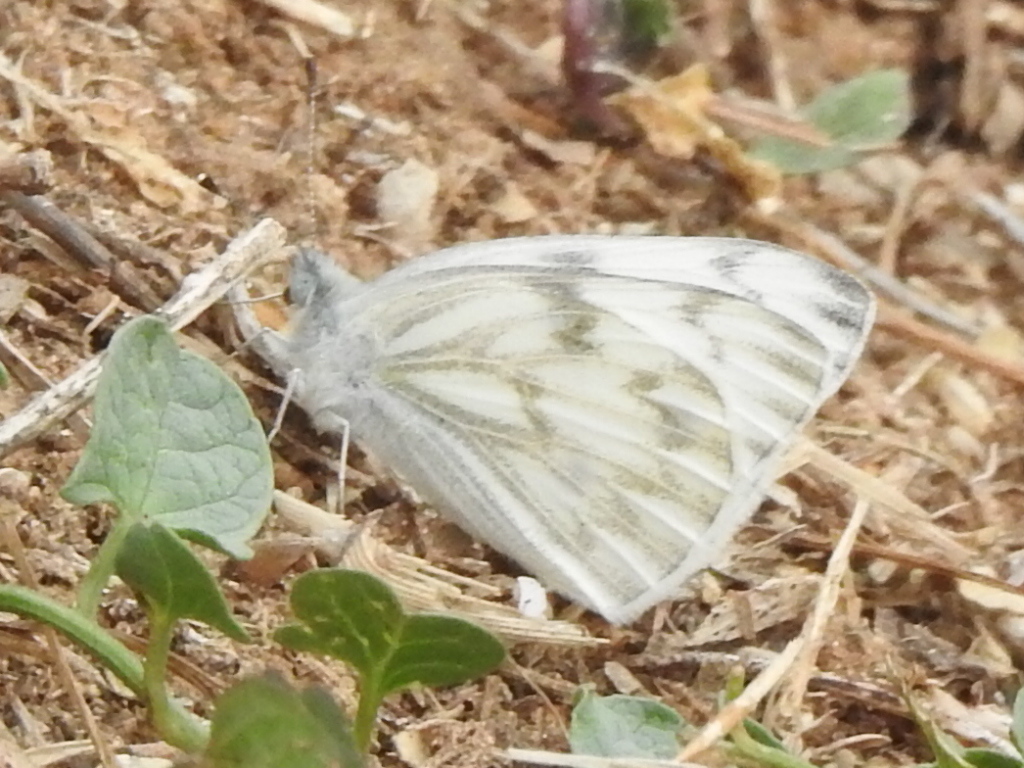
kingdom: Animalia
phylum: Arthropoda
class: Insecta
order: Lepidoptera
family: Pieridae
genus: Pontia
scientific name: Pontia protodice
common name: Checkered white
